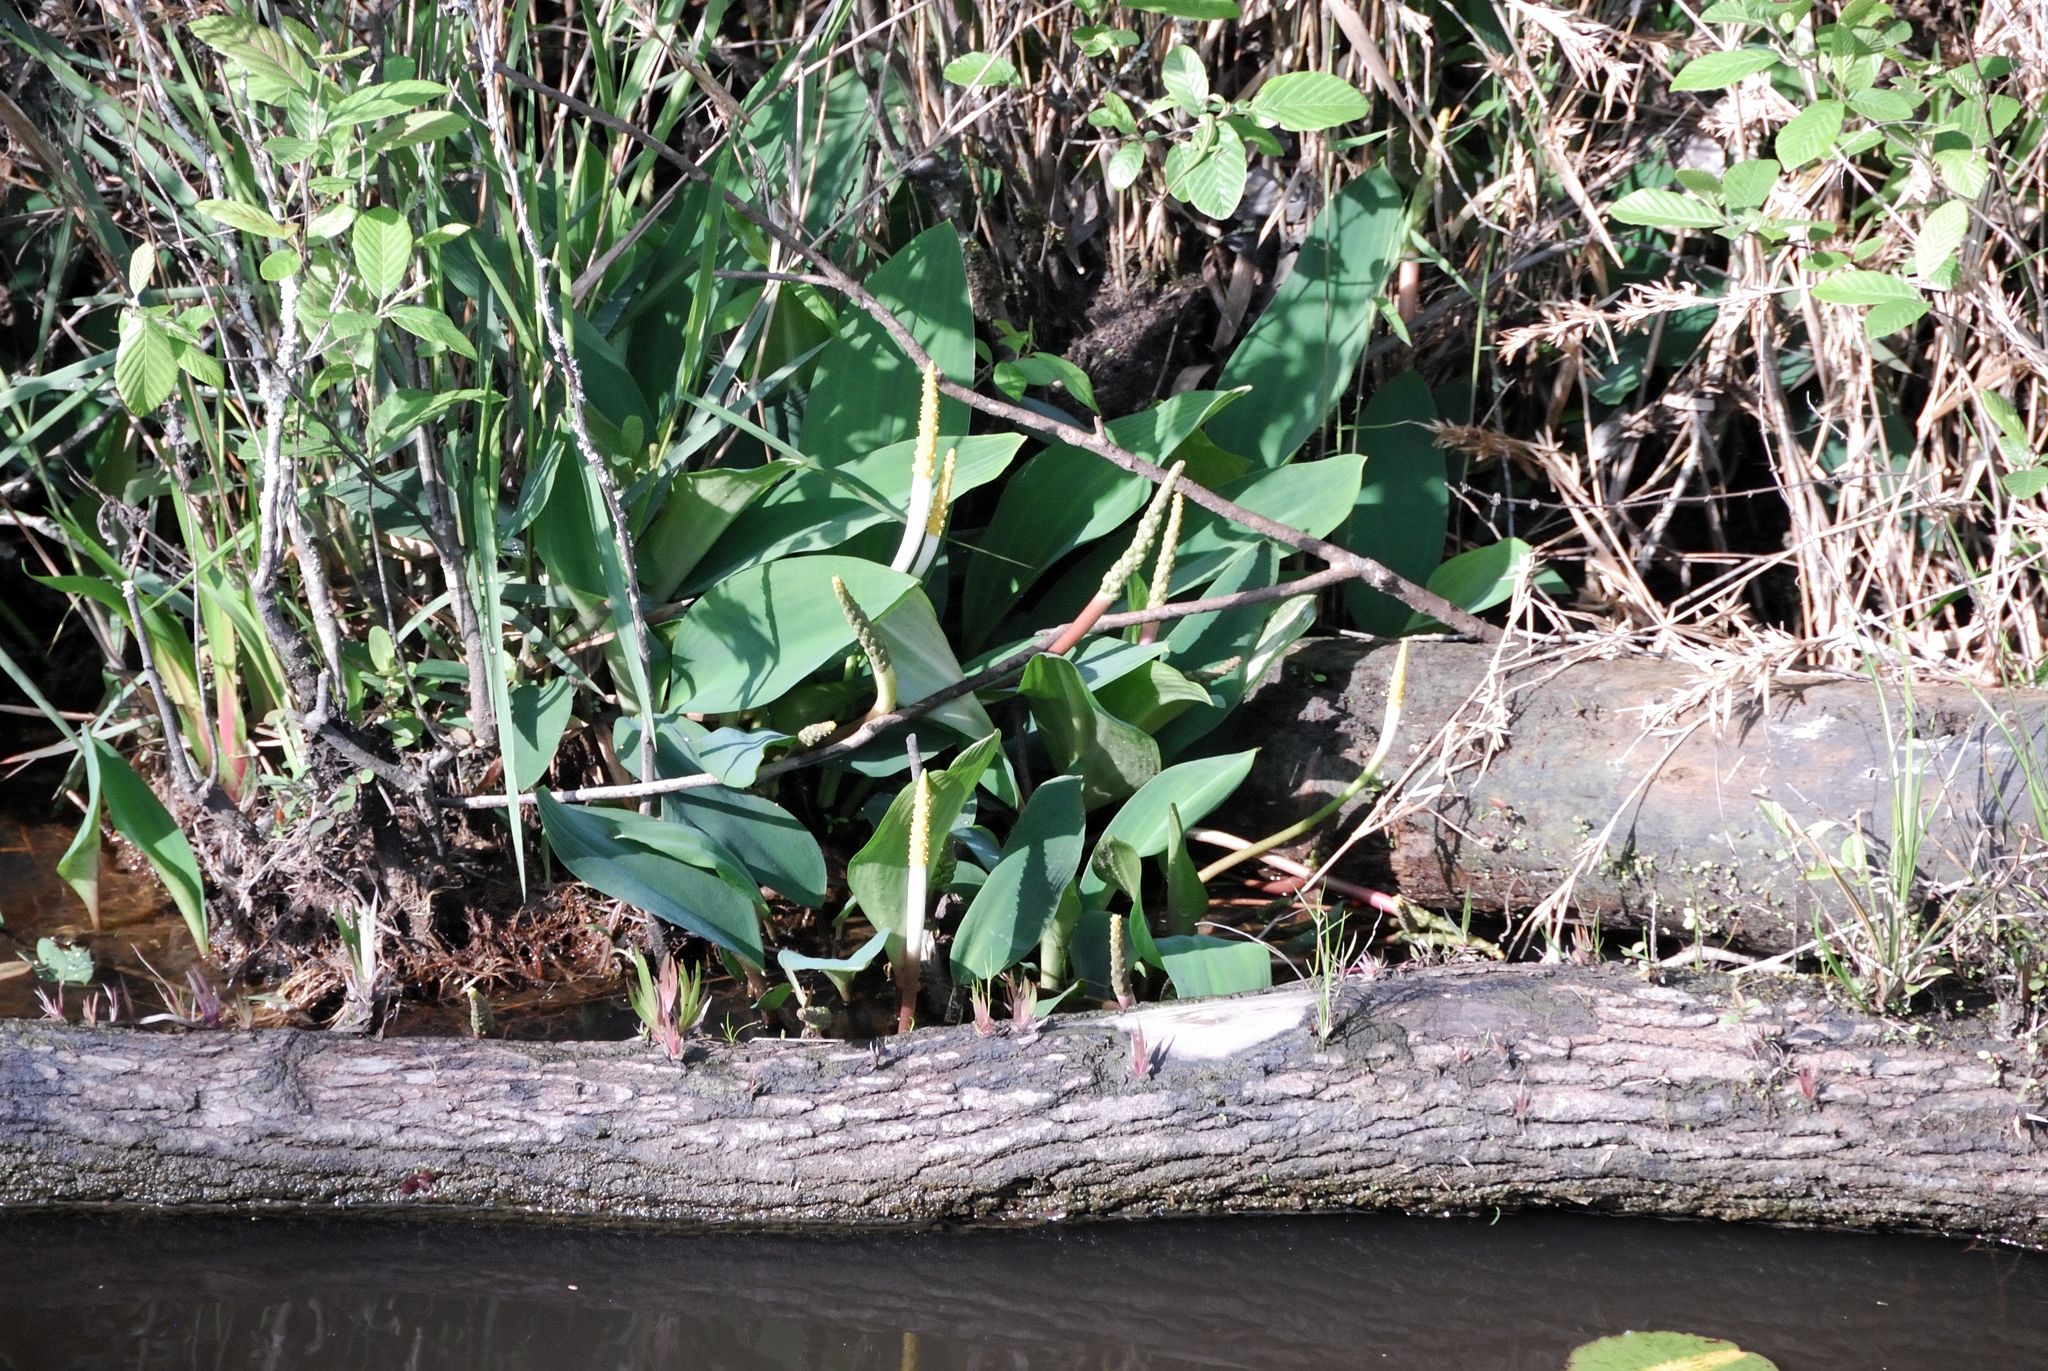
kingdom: Plantae
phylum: Tracheophyta
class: Liliopsida
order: Alismatales
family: Araceae
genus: Orontium
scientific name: Orontium aquaticum
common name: Golden-club
